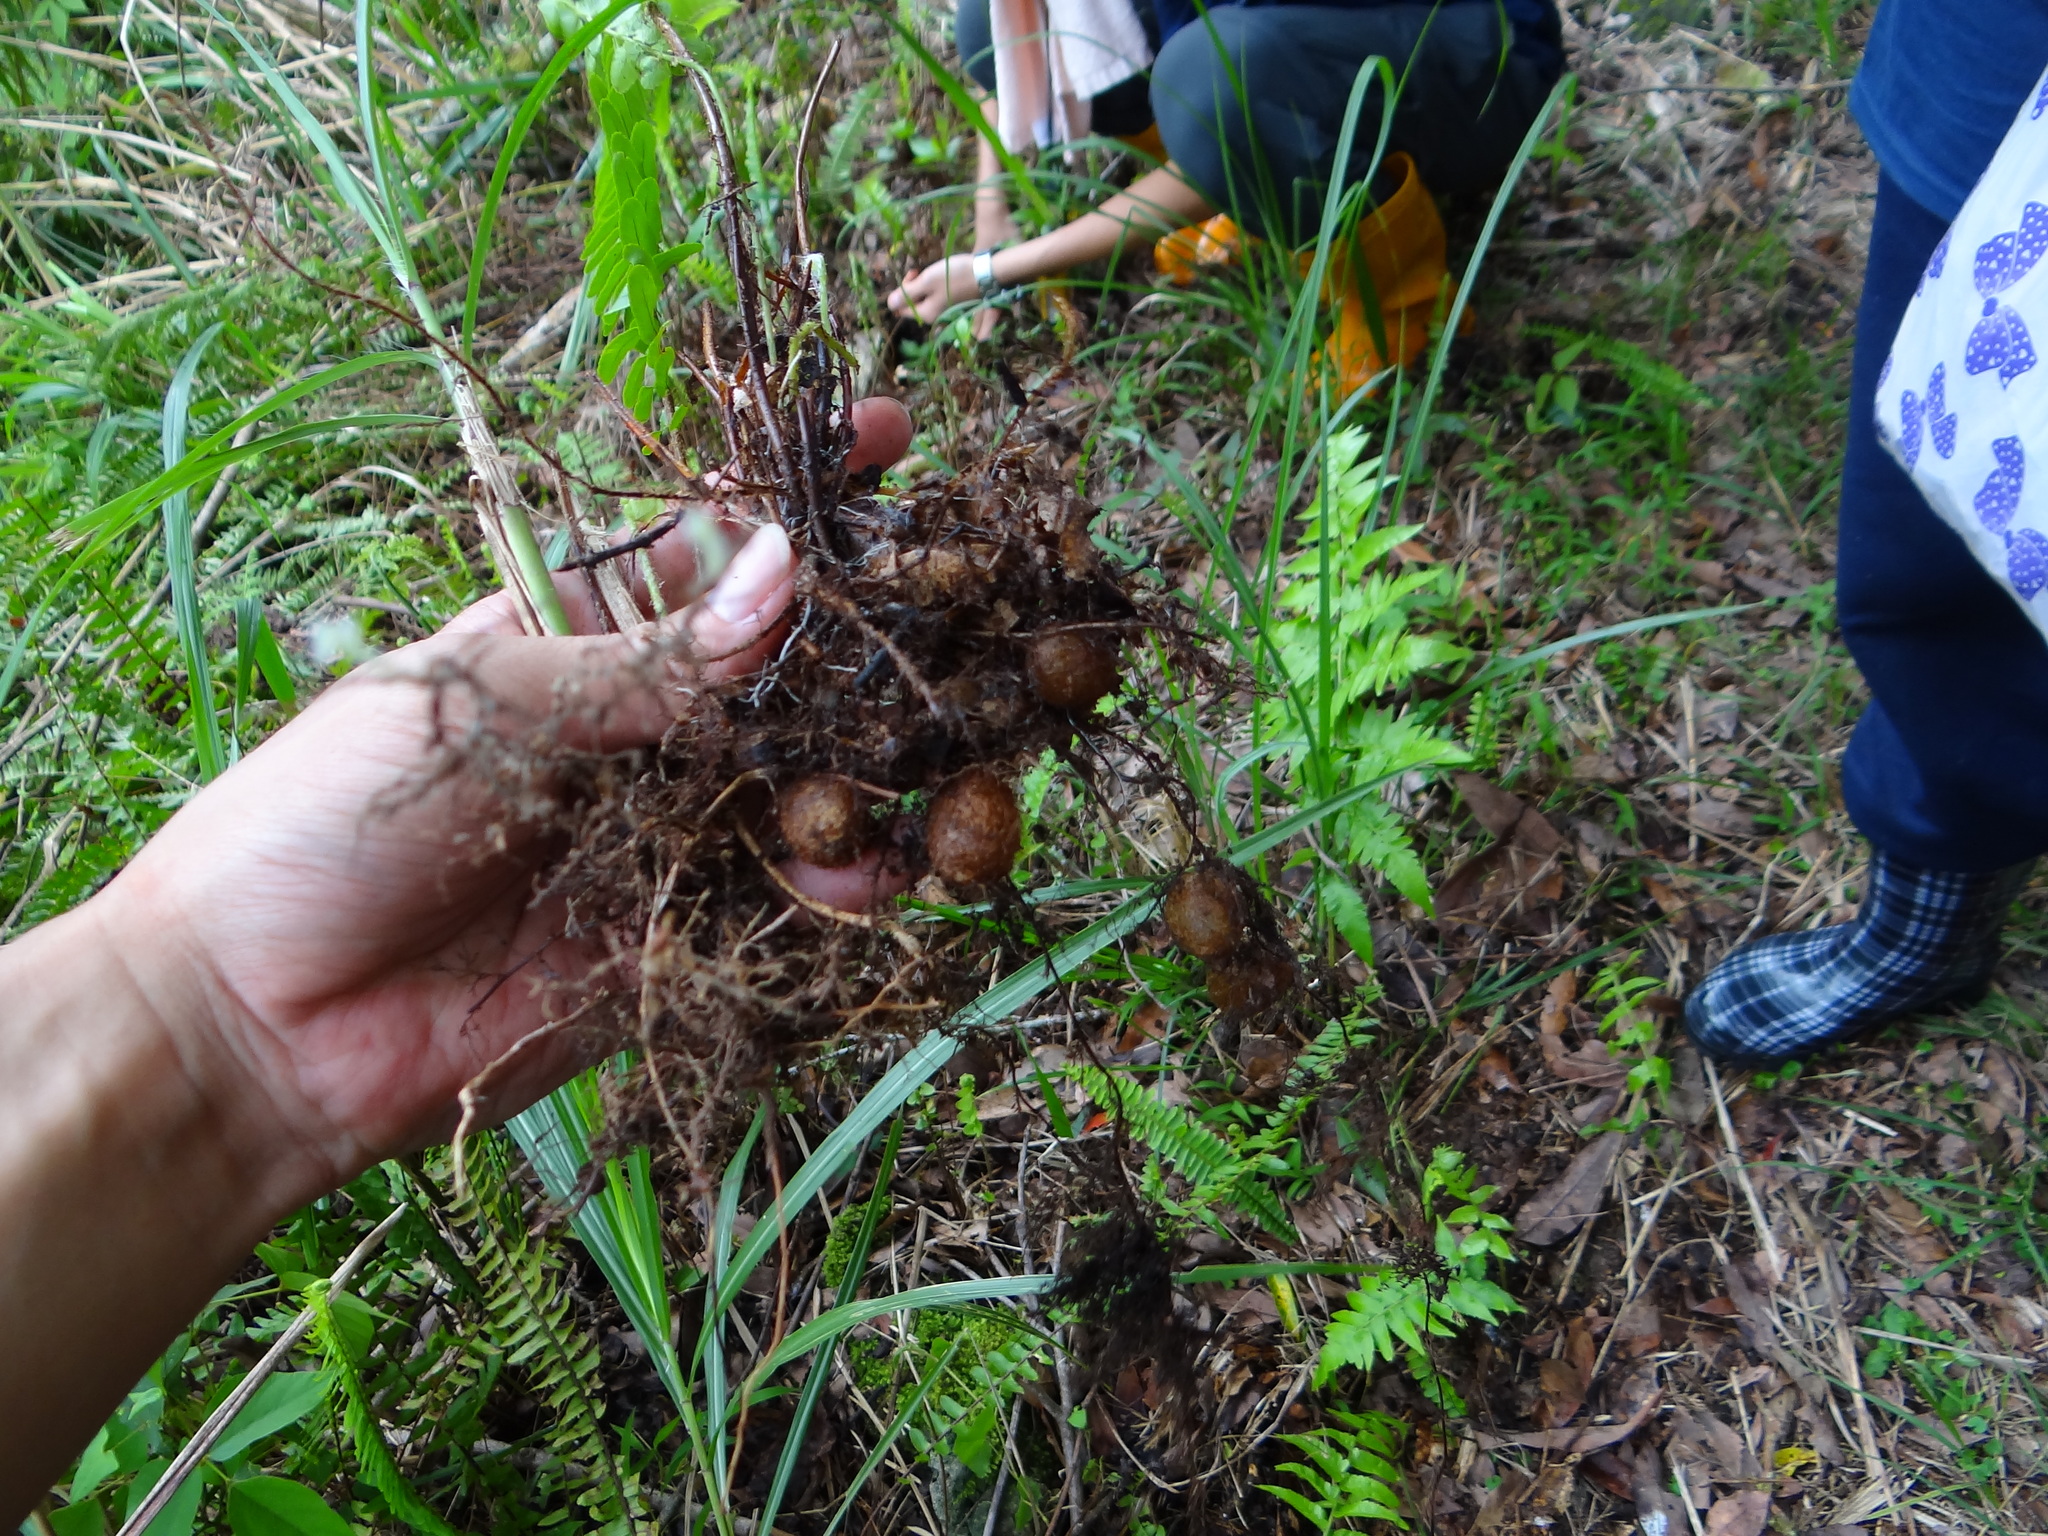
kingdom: Plantae
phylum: Tracheophyta
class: Polypodiopsida
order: Polypodiales
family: Nephrolepidaceae
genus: Nephrolepis
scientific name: Nephrolepis cordifolia
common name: Narrow swordfern
